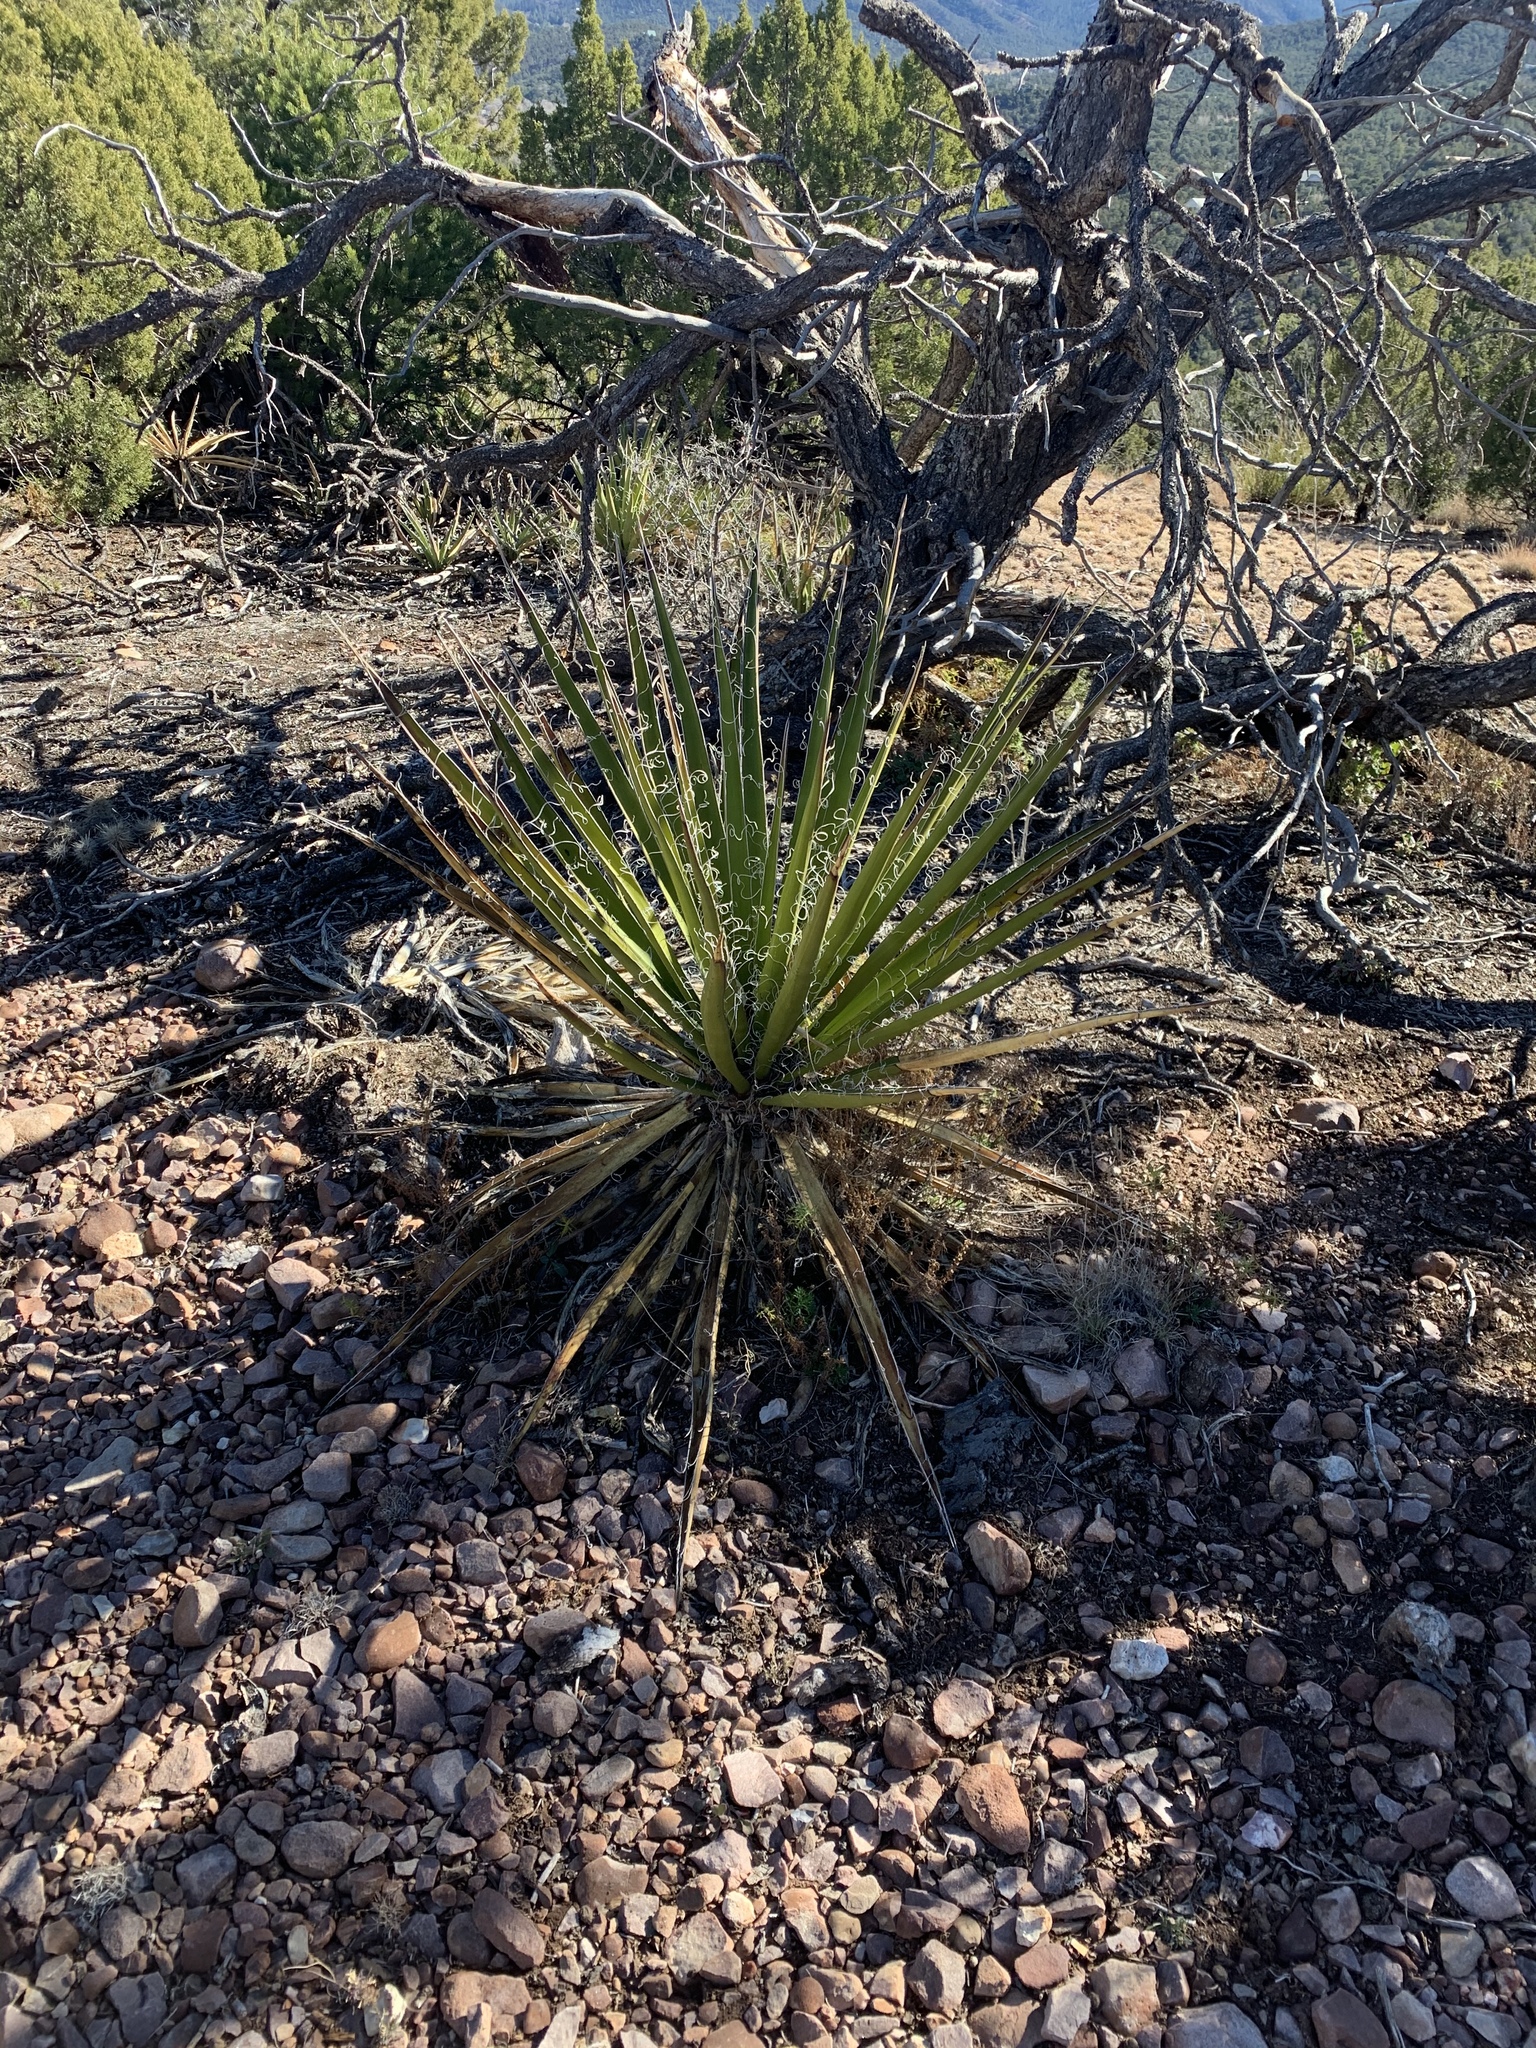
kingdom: Plantae
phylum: Tracheophyta
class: Liliopsida
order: Asparagales
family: Asparagaceae
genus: Yucca
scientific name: Yucca baccata
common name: Banana yucca
